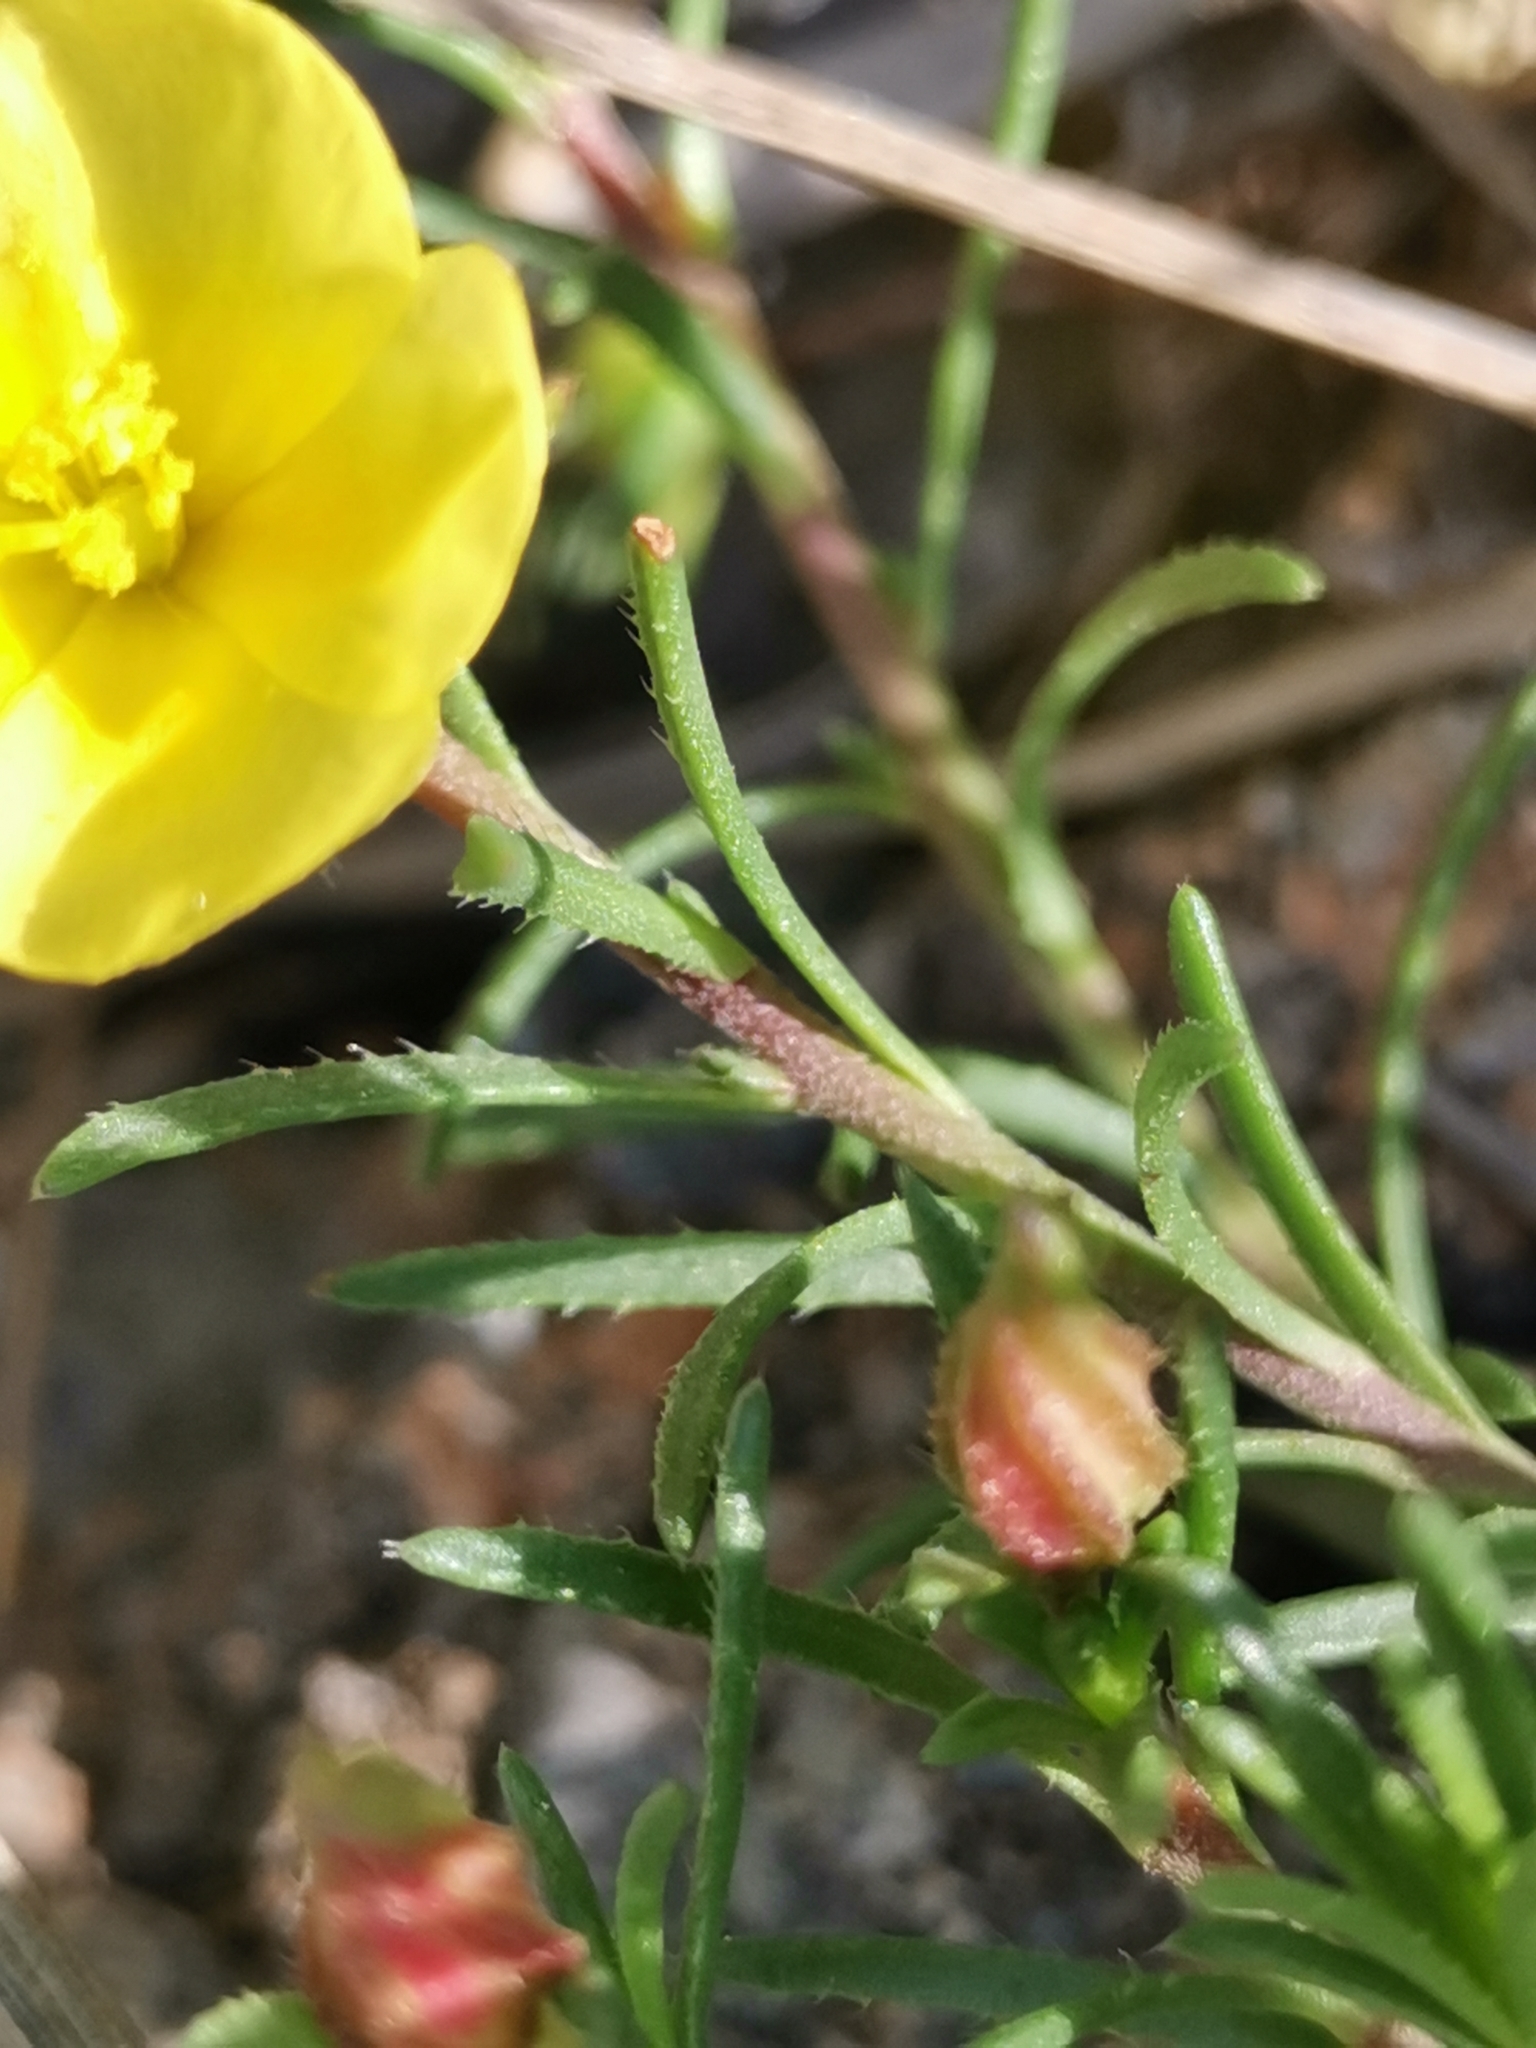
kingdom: Plantae
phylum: Tracheophyta
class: Magnoliopsida
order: Malvales
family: Cistaceae
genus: Fumana
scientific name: Fumana procumbens
